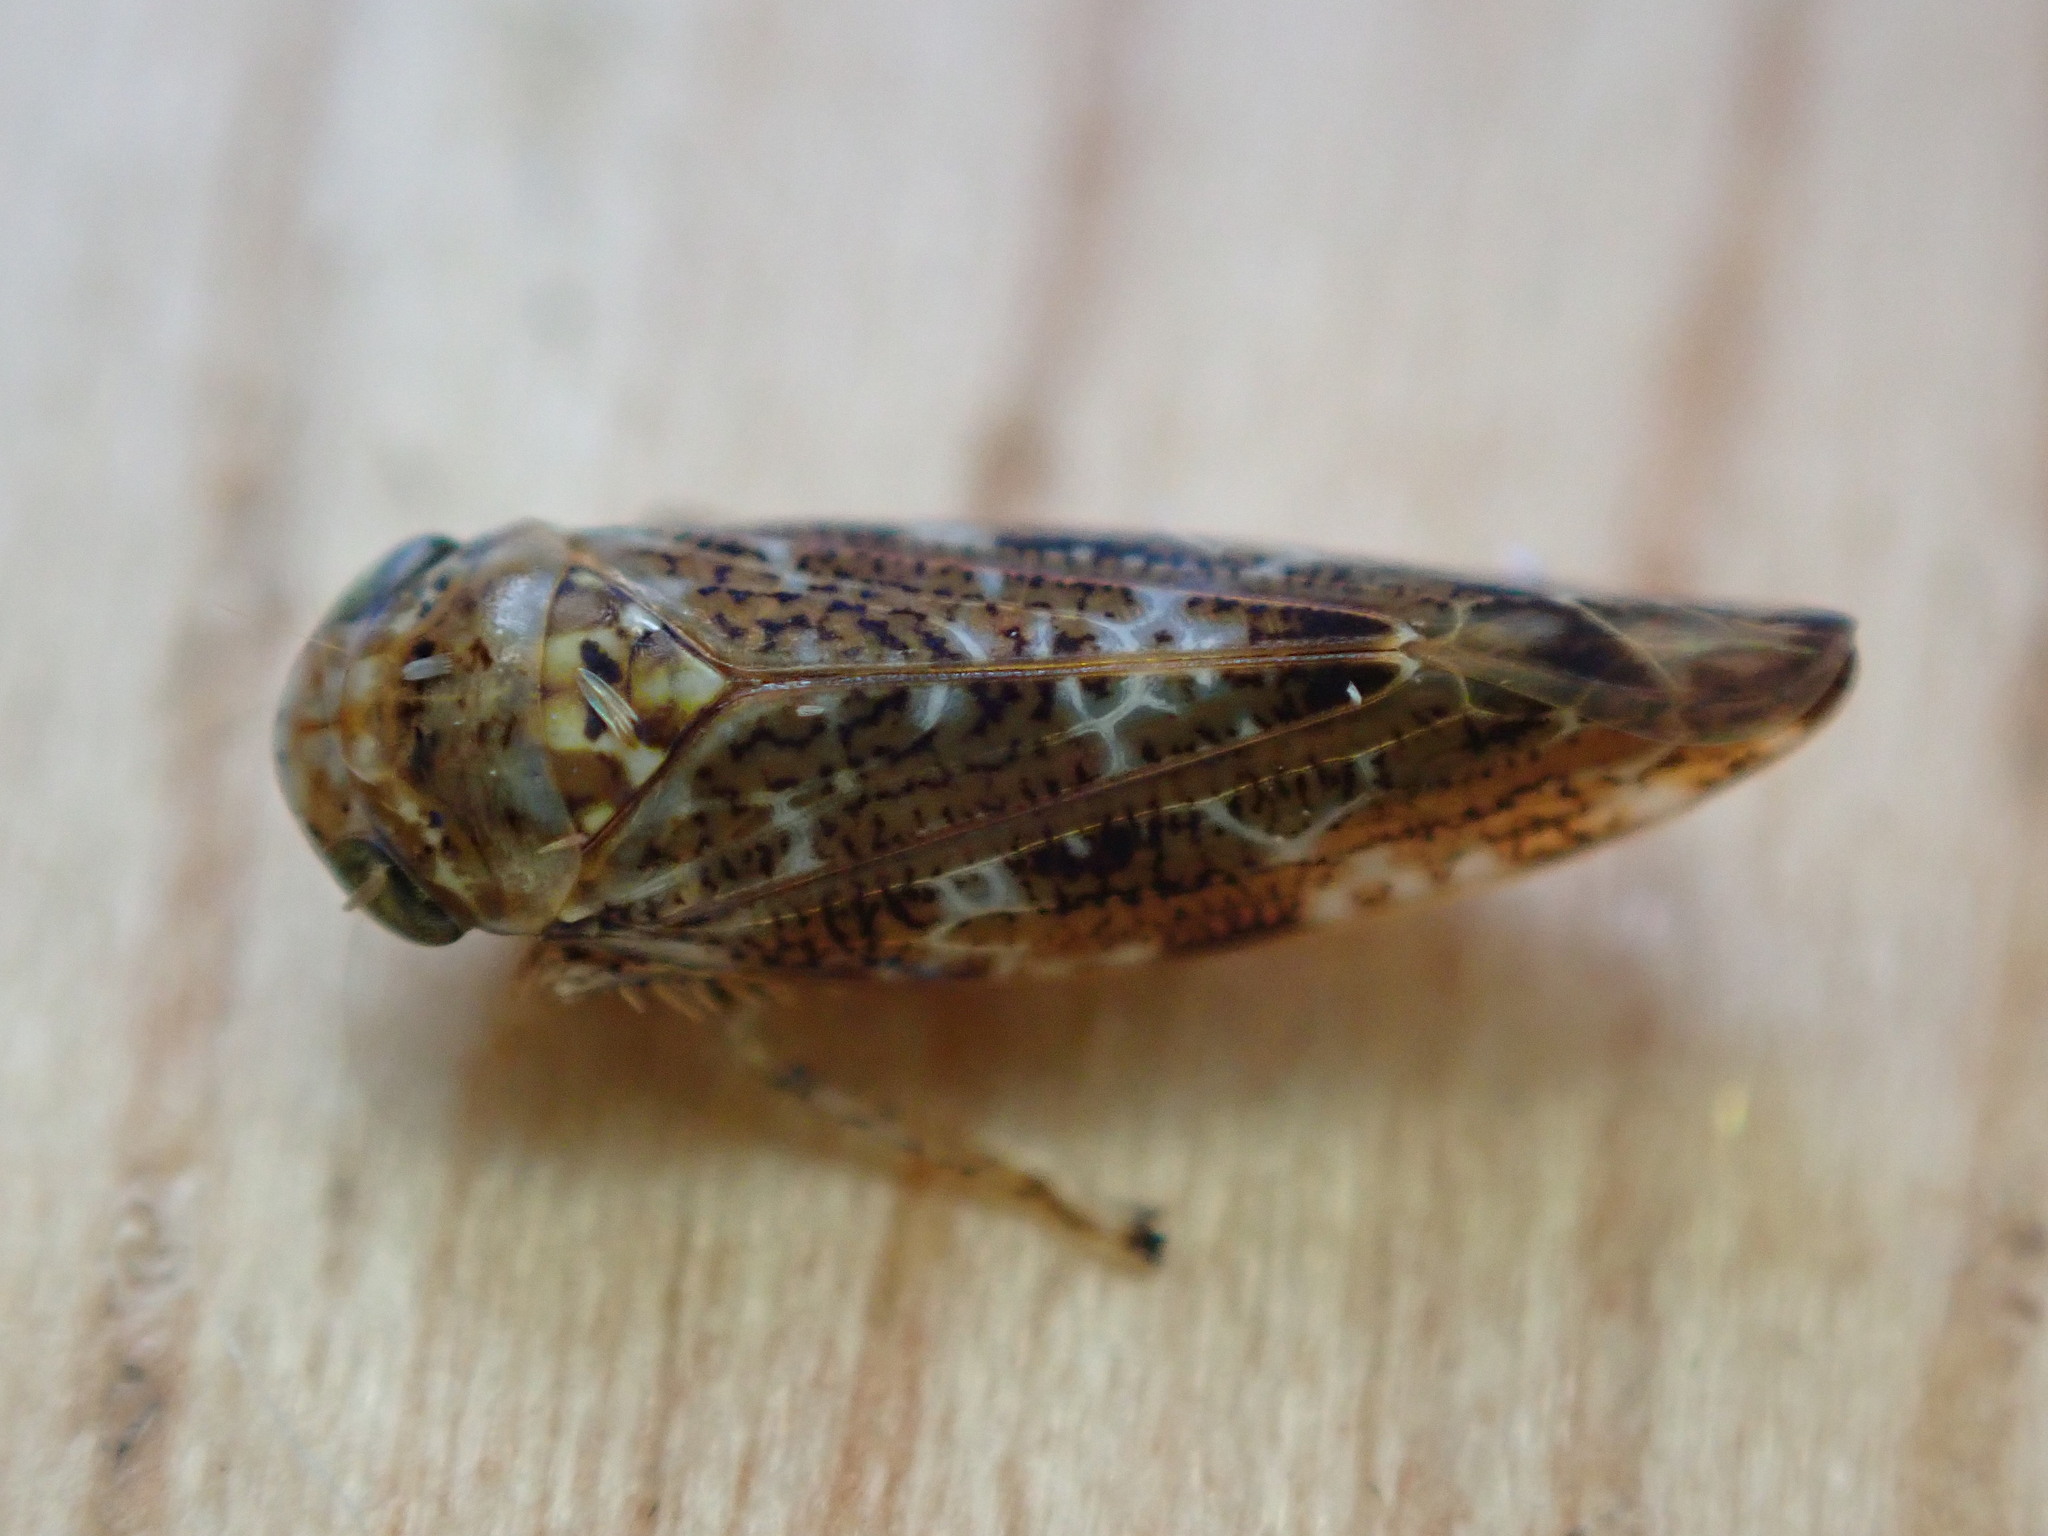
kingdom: Animalia
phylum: Arthropoda
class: Insecta
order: Hemiptera
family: Cicadellidae
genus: Allygus
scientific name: Allygus mixtus
